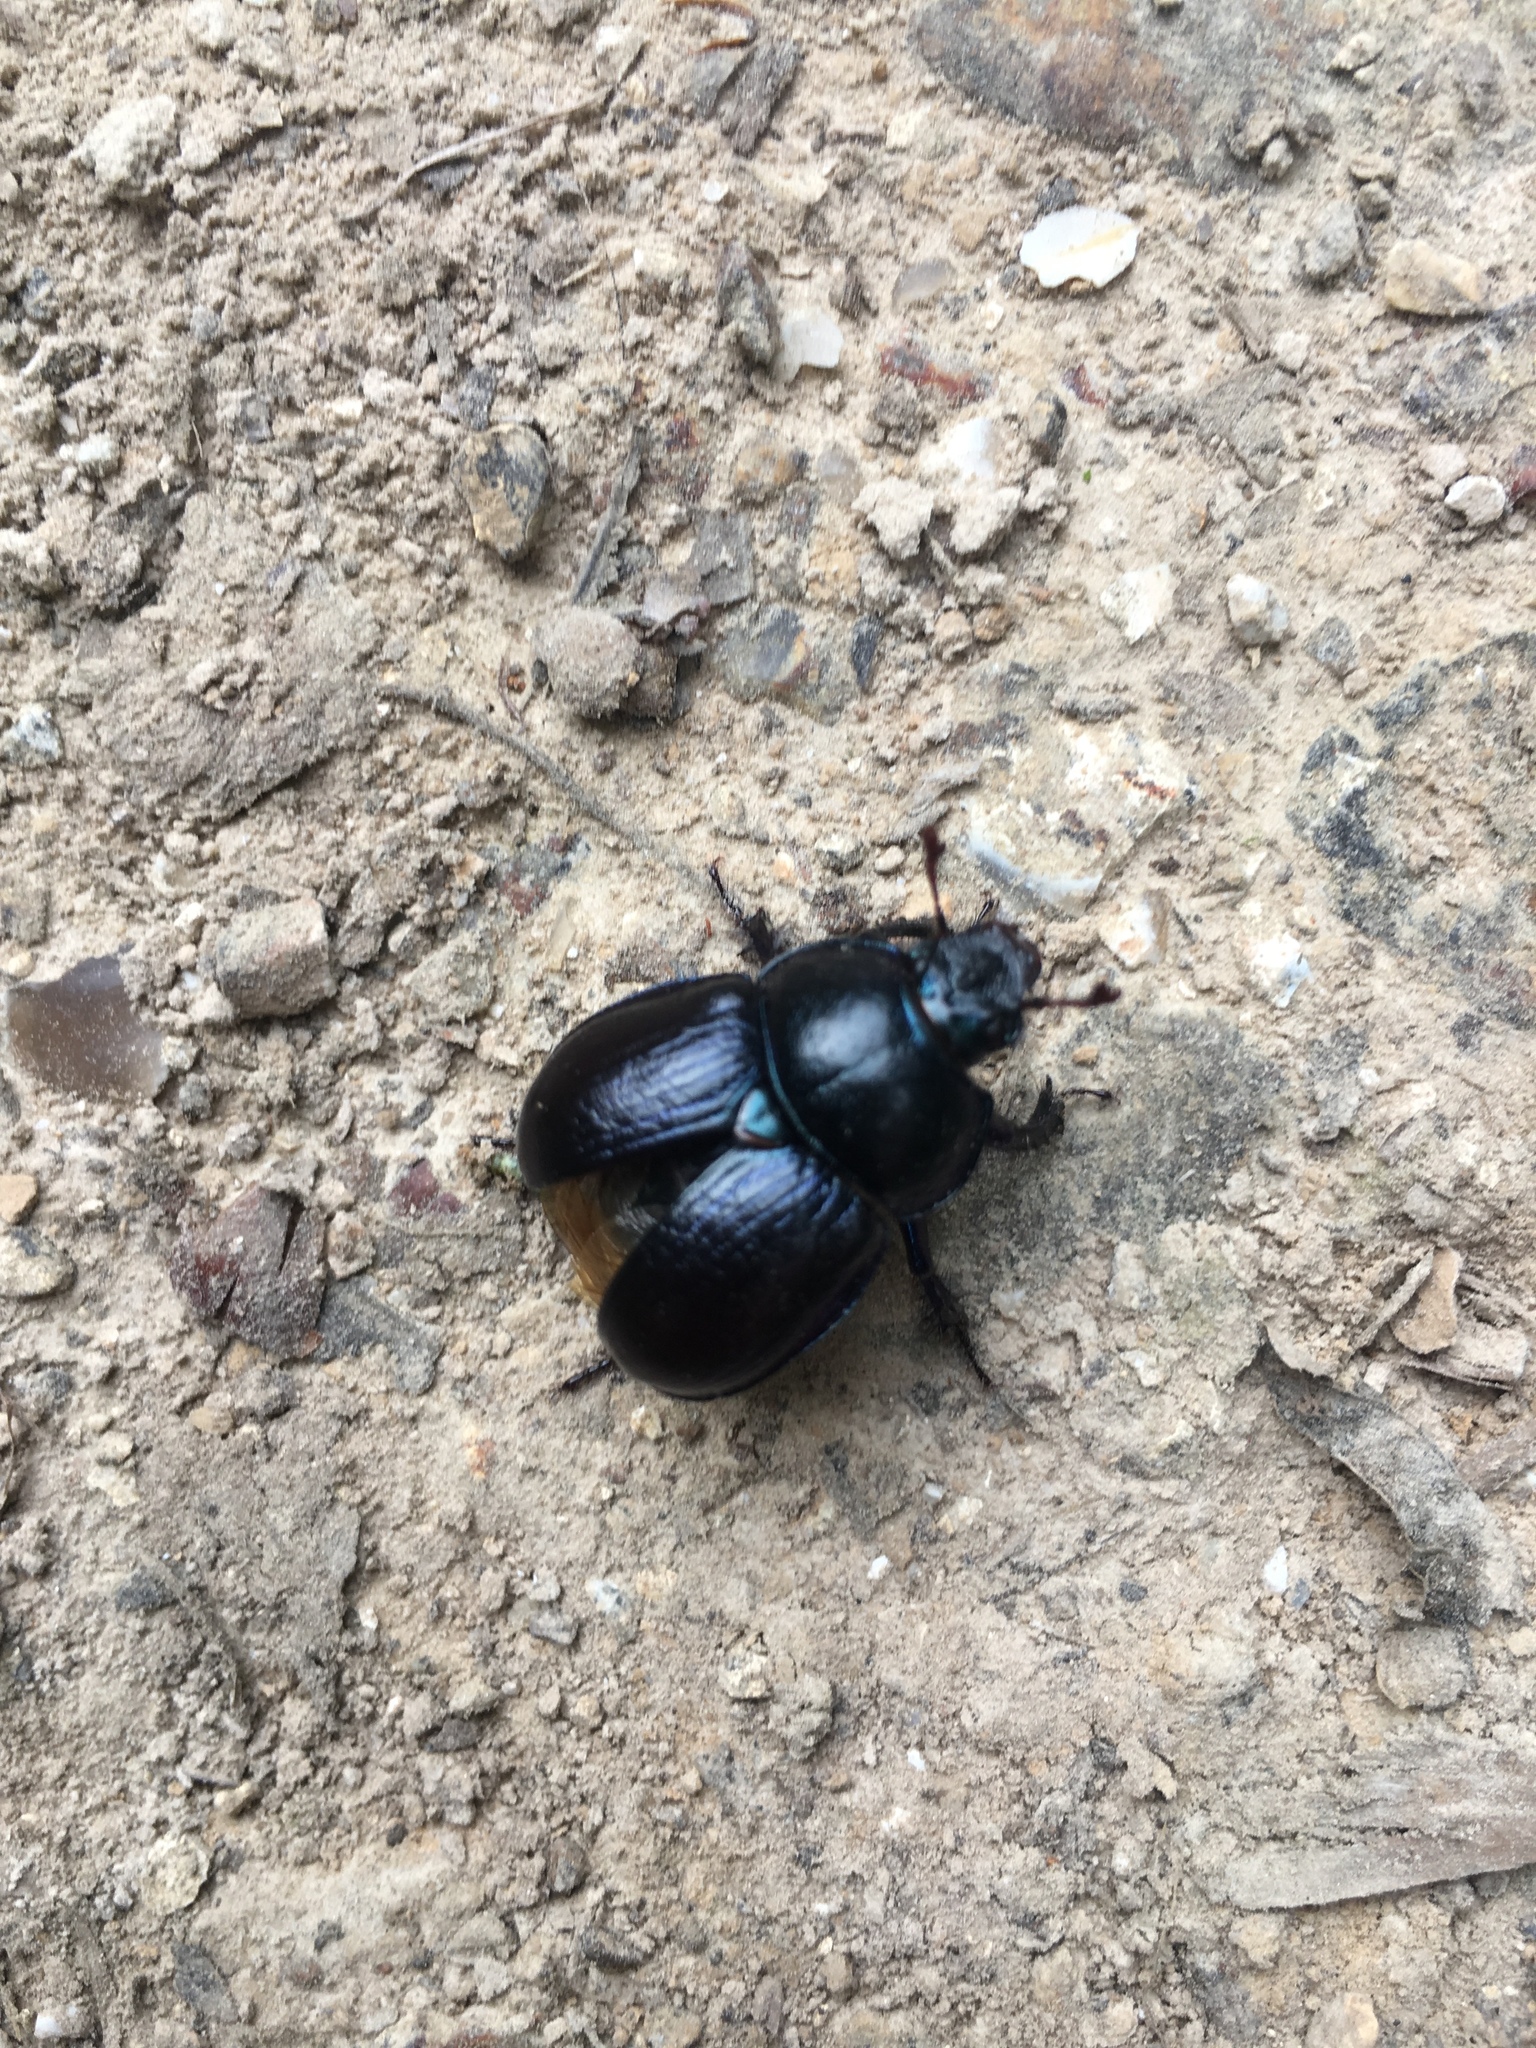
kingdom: Animalia
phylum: Arthropoda
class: Insecta
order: Coleoptera
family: Geotrupidae
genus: Anoplotrupes
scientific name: Anoplotrupes stercorosus
